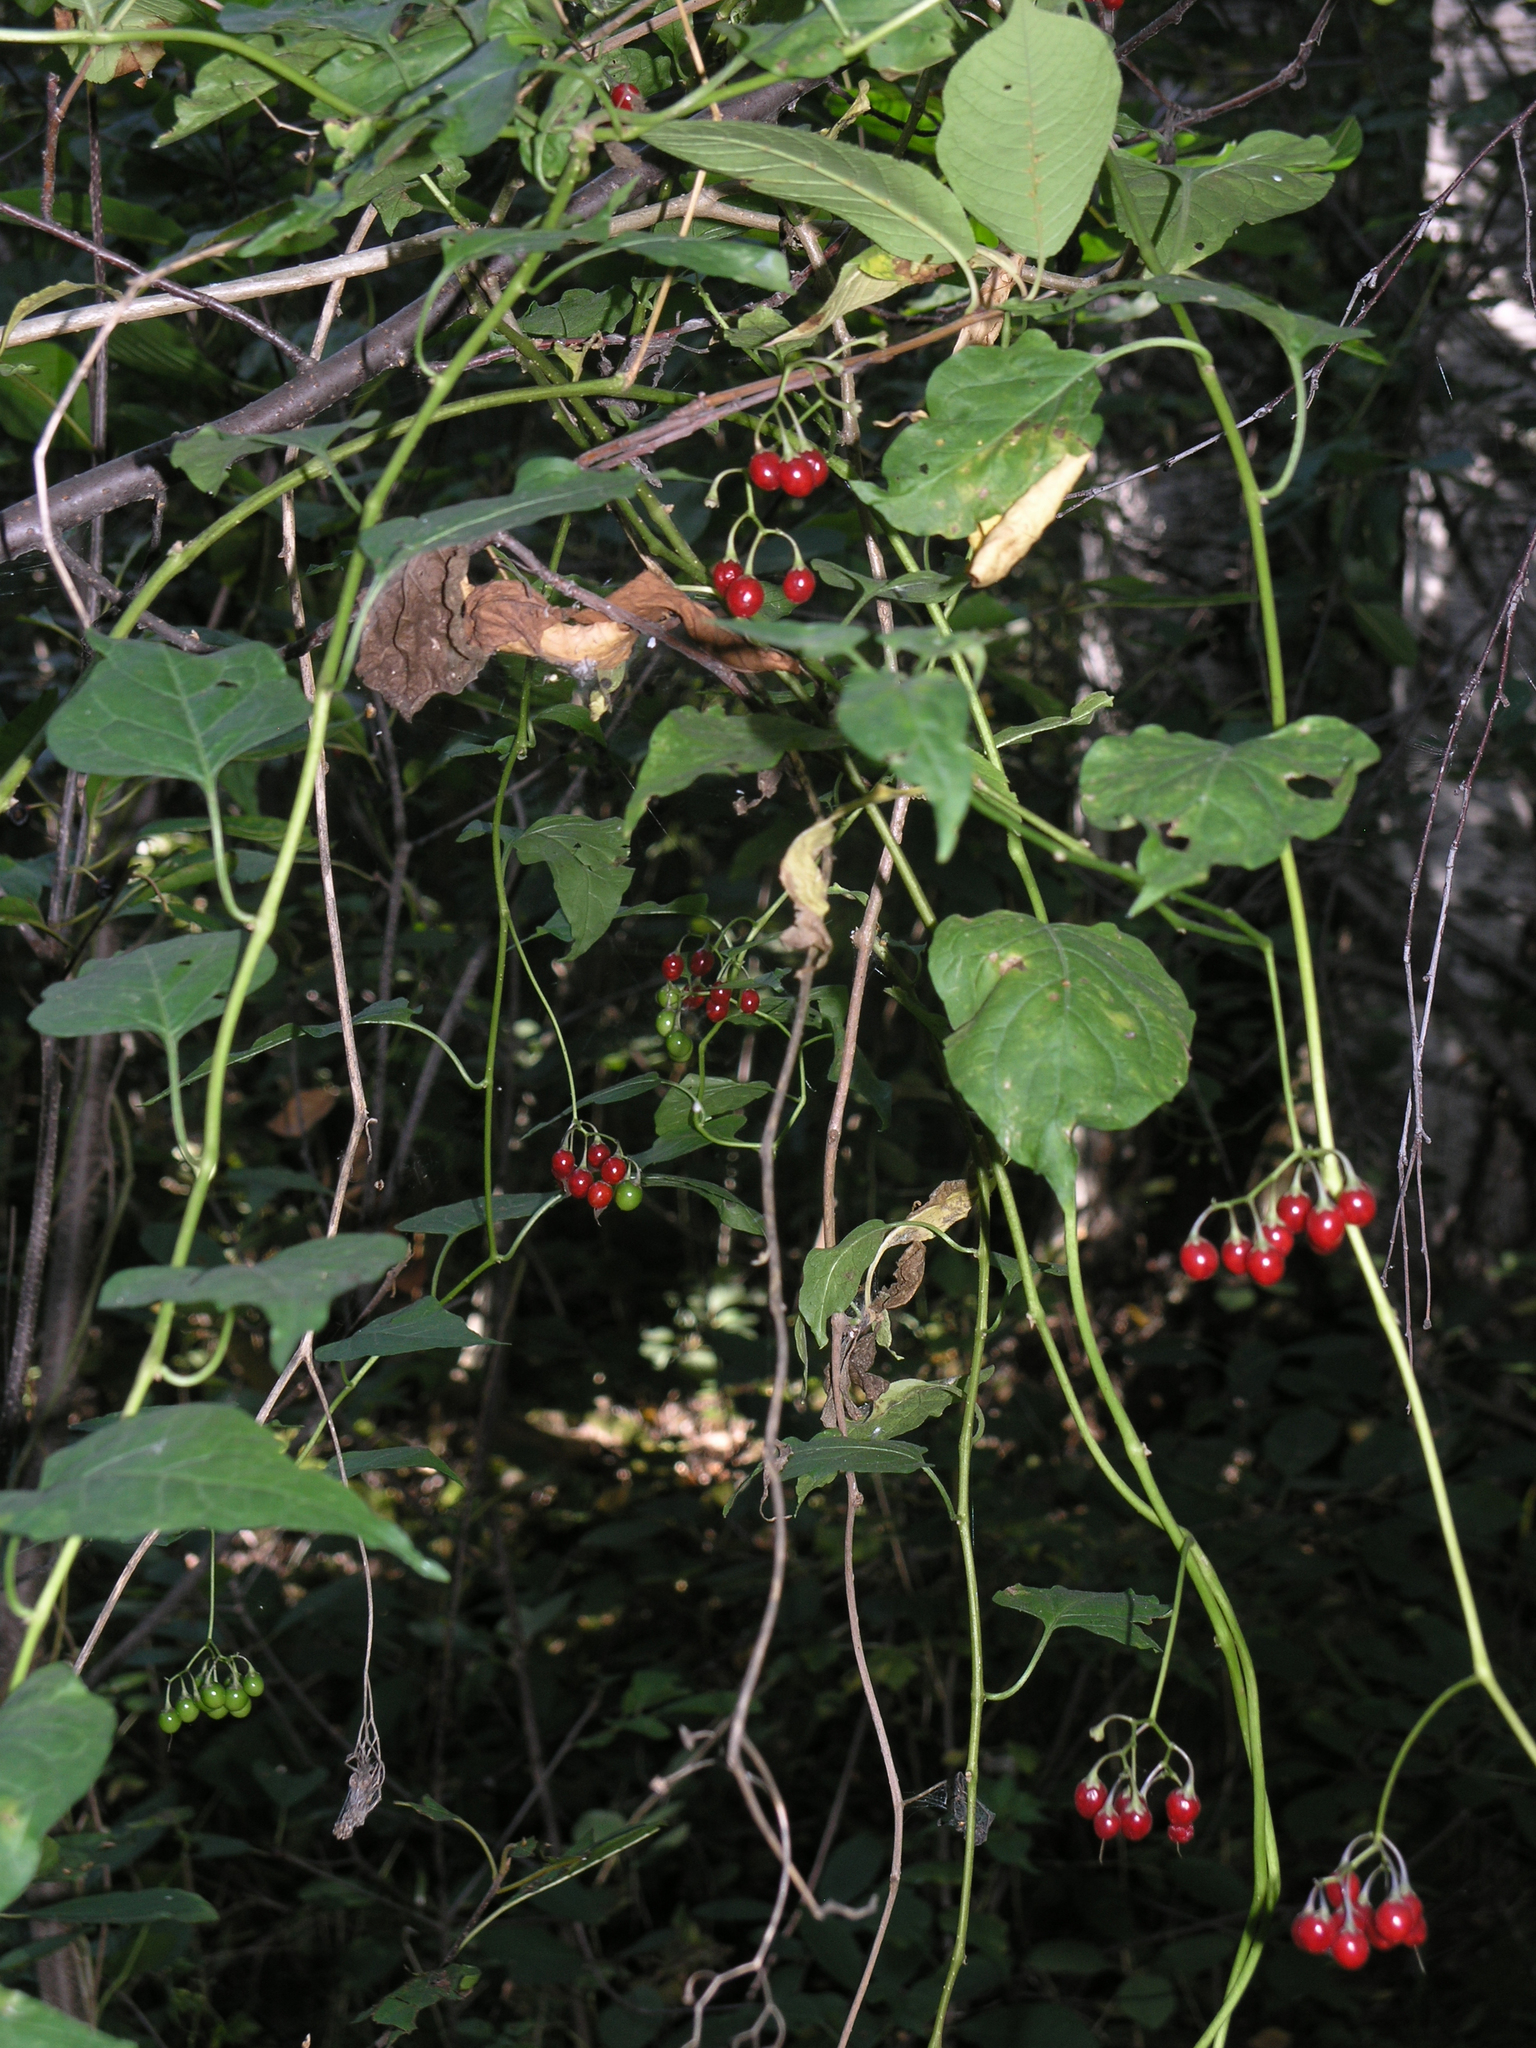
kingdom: Plantae
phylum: Tracheophyta
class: Magnoliopsida
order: Solanales
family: Solanaceae
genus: Solanum
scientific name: Solanum dulcamara
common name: Climbing nightshade
